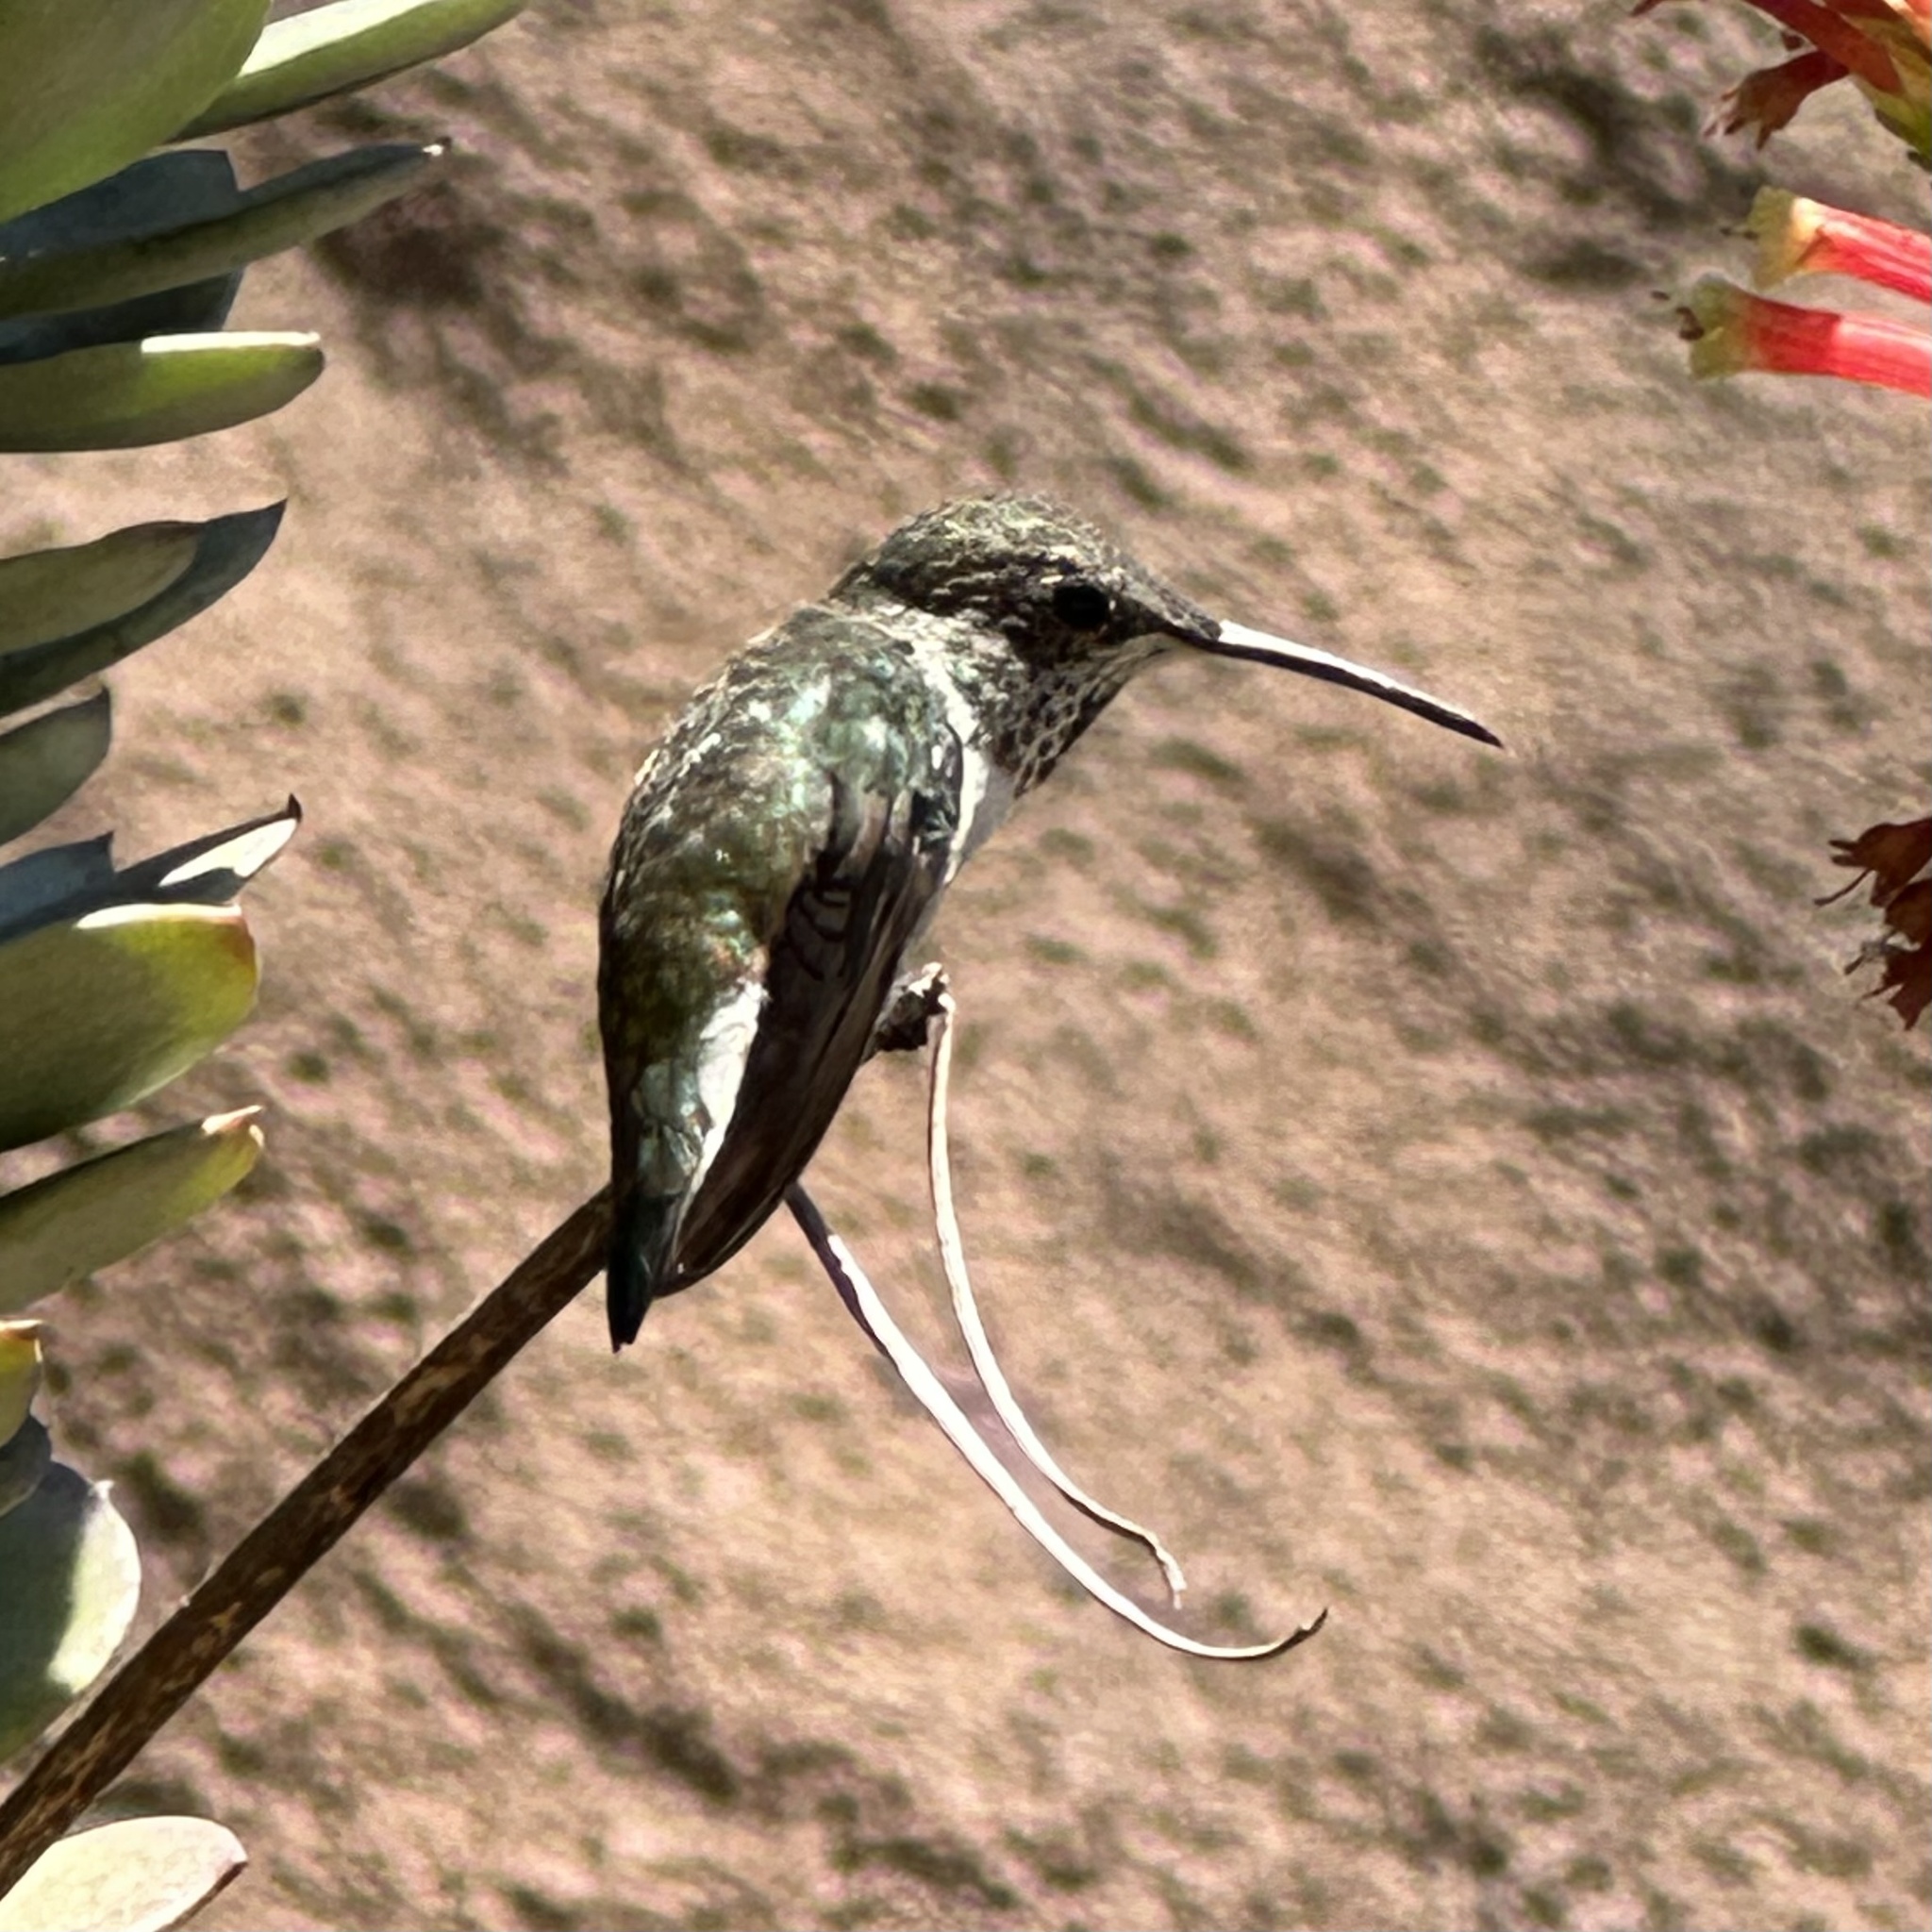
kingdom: Animalia
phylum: Chordata
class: Aves
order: Apodiformes
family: Trochilidae
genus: Selasphorus
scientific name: Selasphorus
